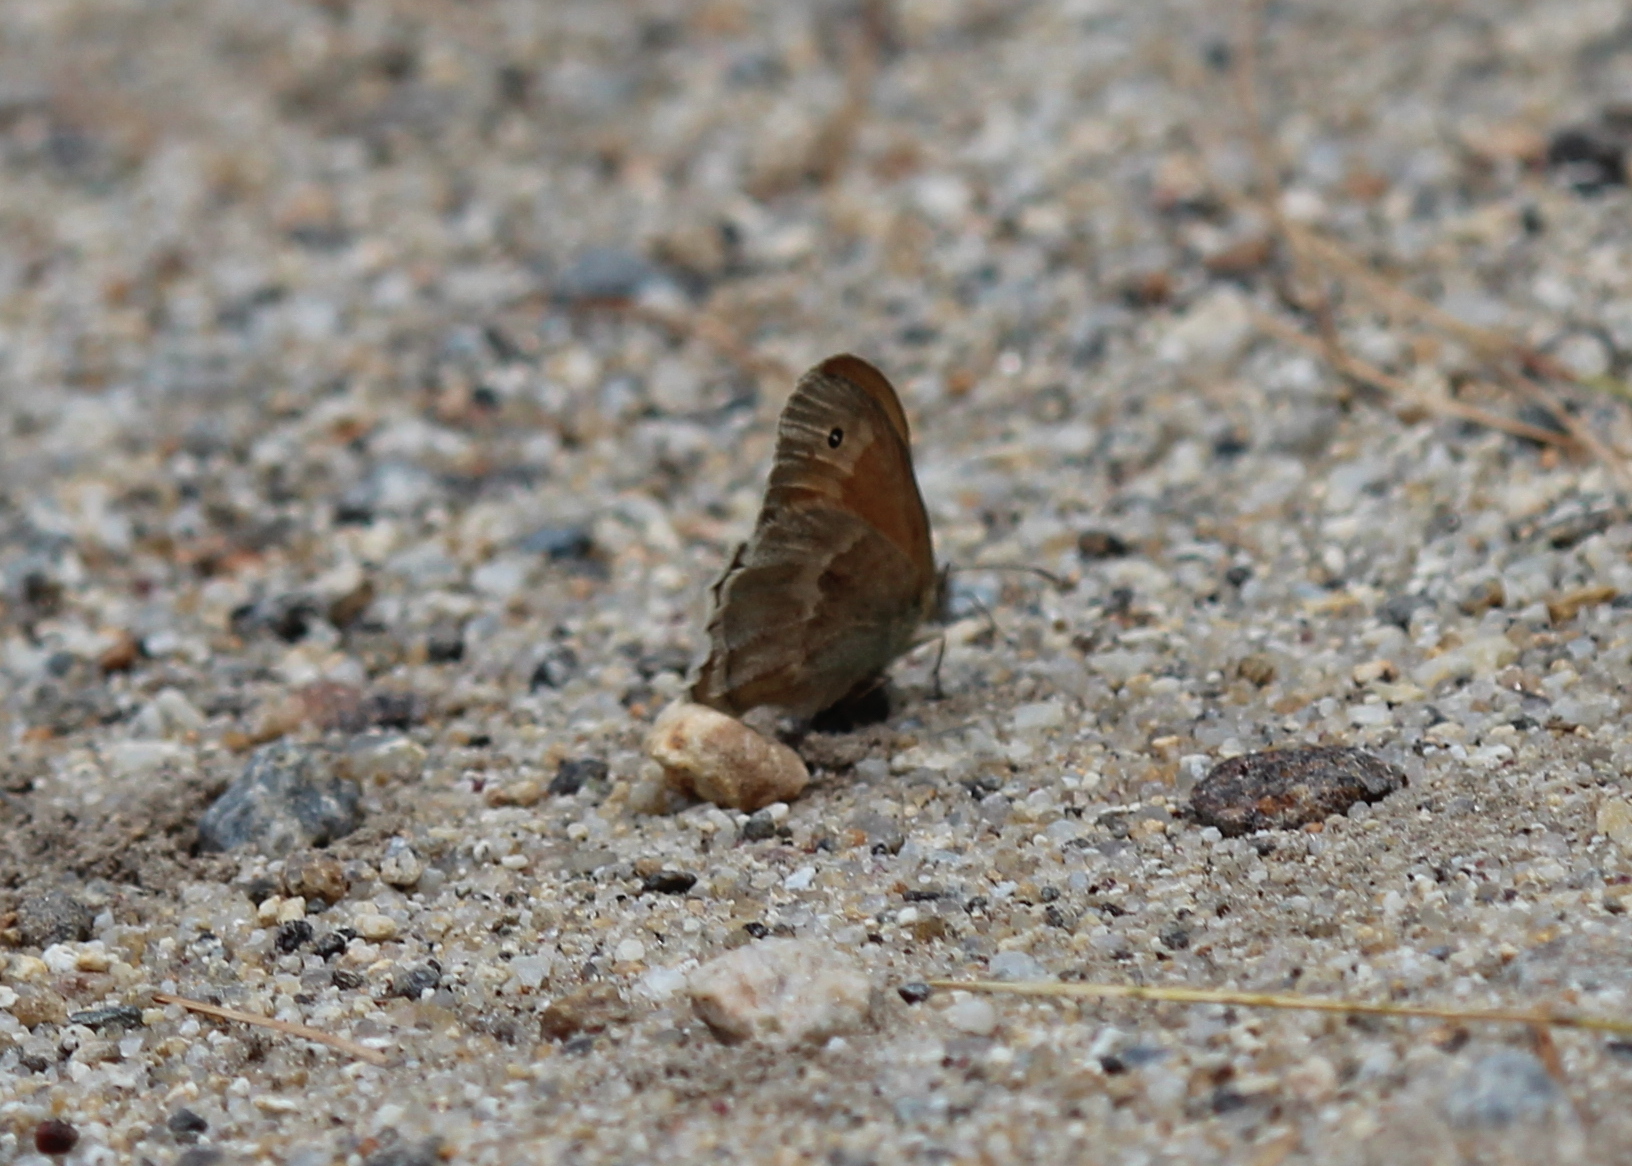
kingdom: Animalia
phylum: Arthropoda
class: Insecta
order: Lepidoptera
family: Nymphalidae
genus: Coenonympha
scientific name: Coenonympha california
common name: Common ringlet
